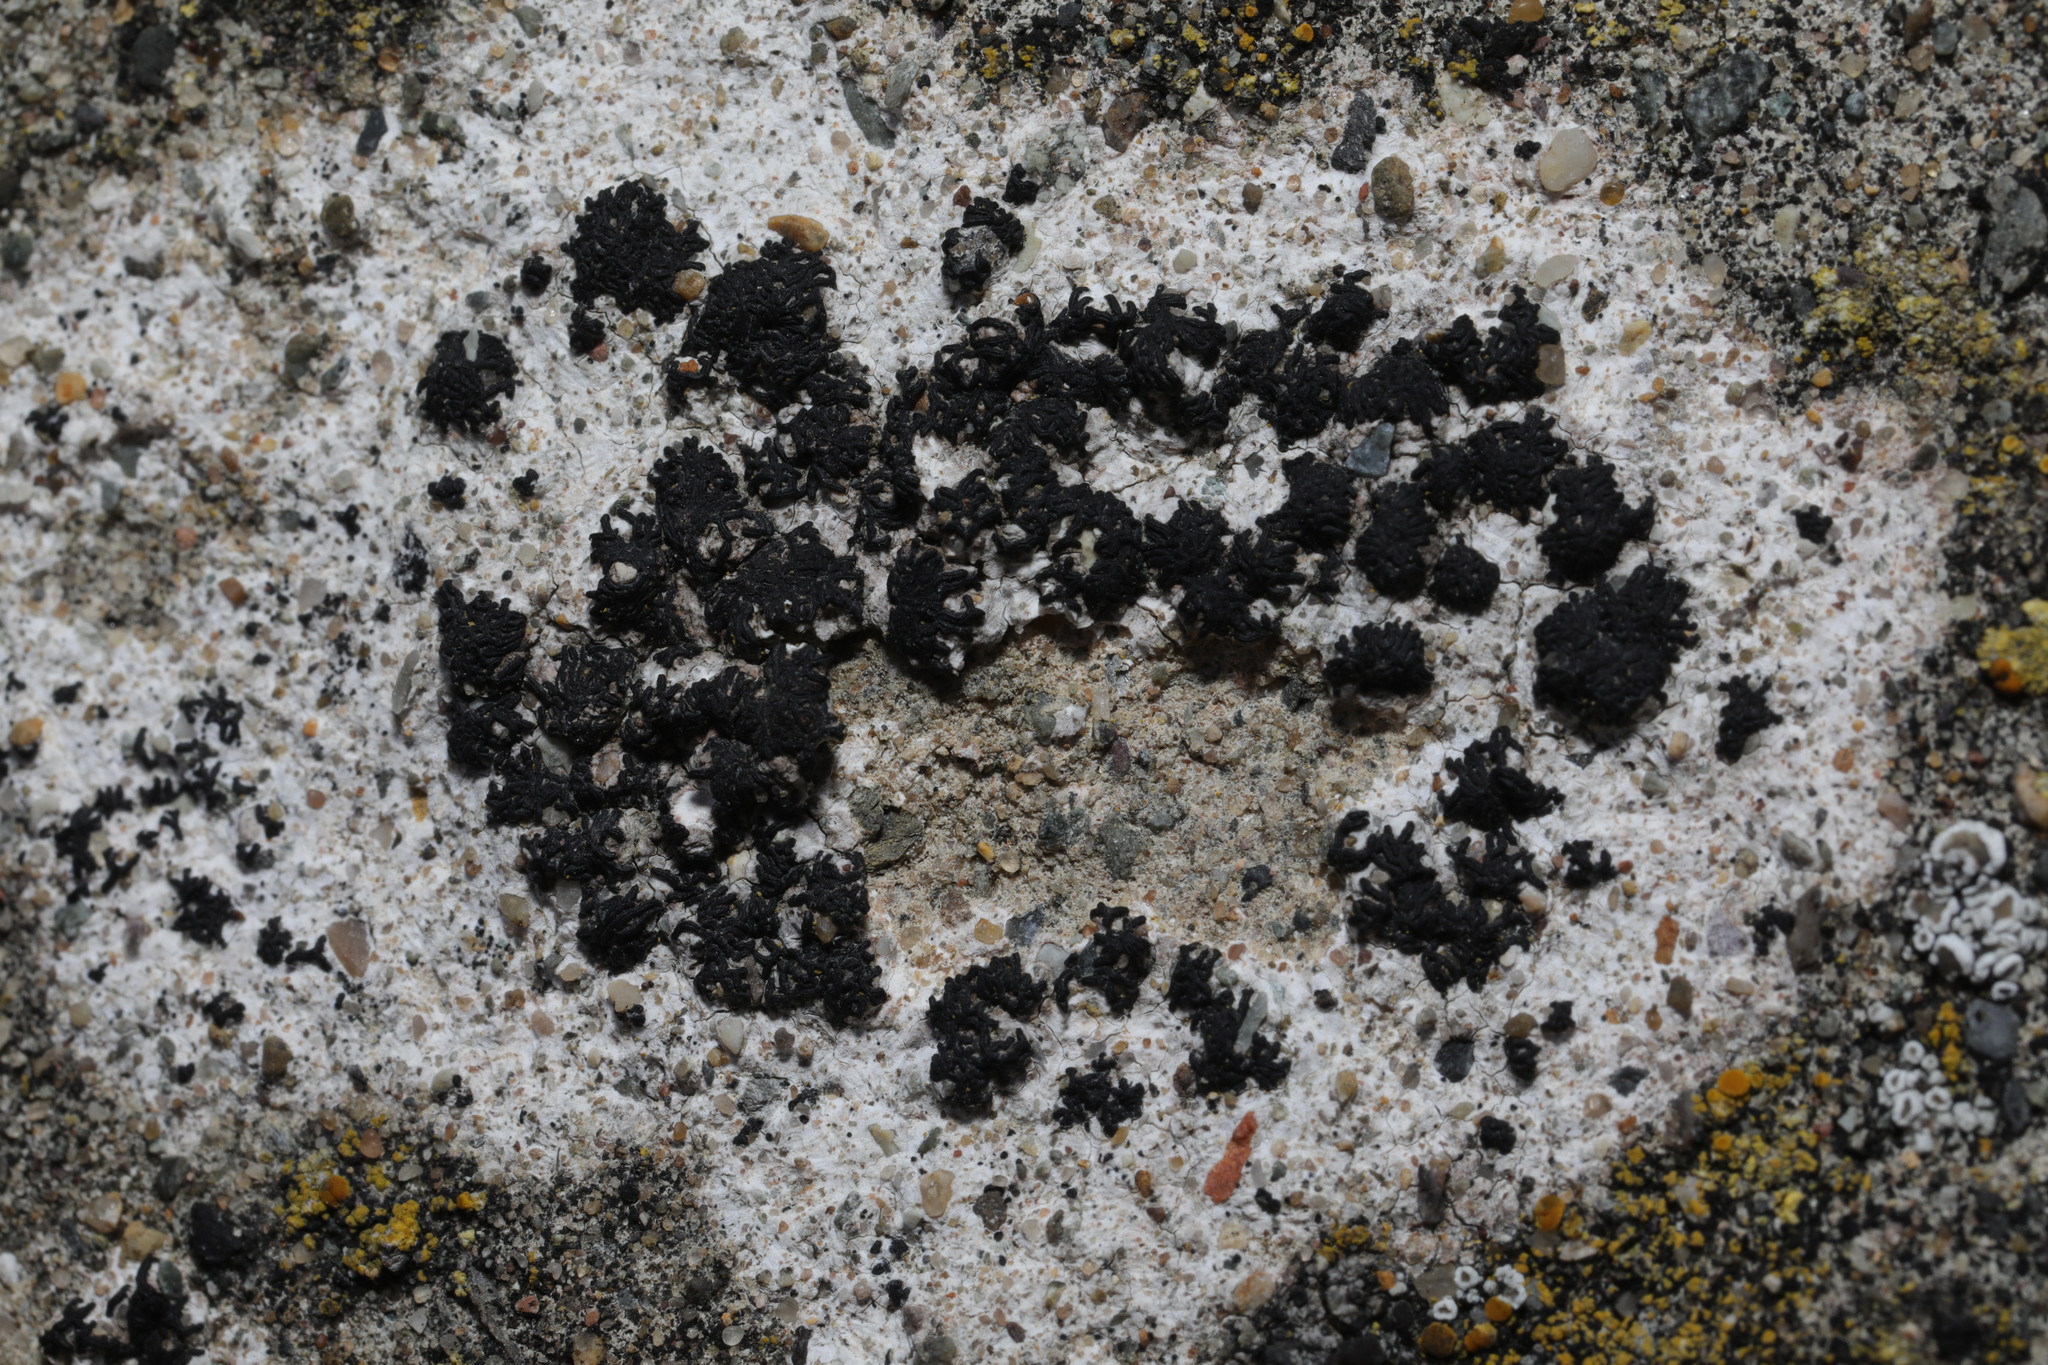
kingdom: Fungi
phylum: Ascomycota
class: Arthoniomycetes
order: Arthoniales
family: Arthoniaceae
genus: Arthonia
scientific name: Arthonia calcarea
